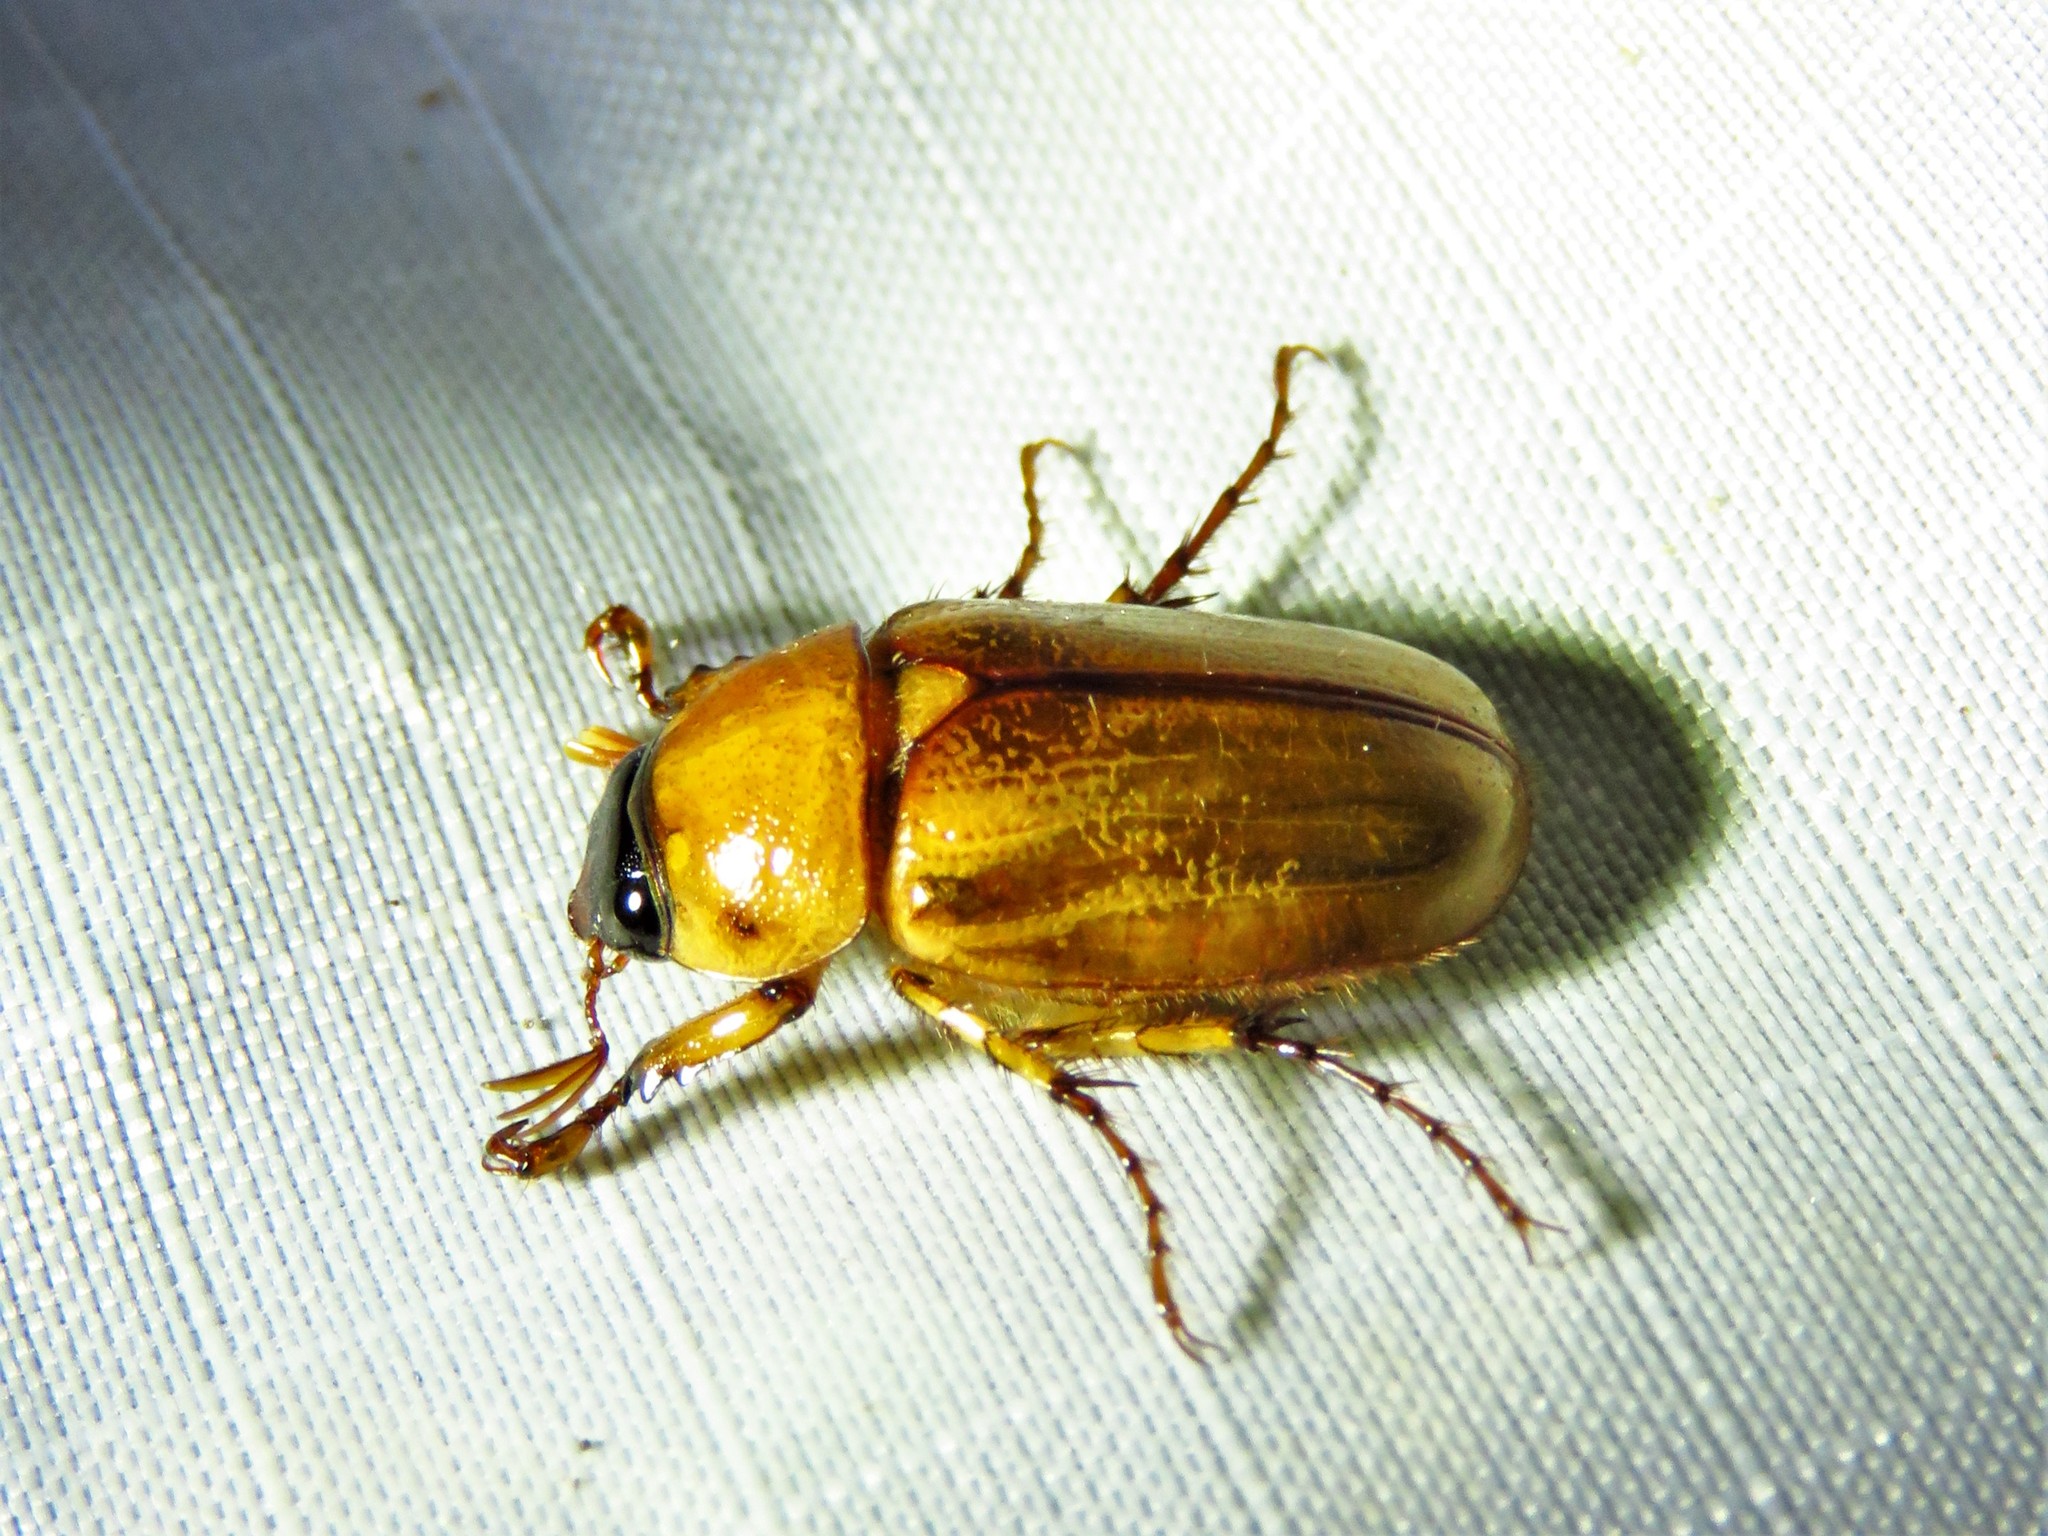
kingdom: Animalia
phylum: Arthropoda
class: Insecta
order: Coleoptera
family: Scarabaeidae
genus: Cyclocephala
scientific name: Cyclocephala lurida
